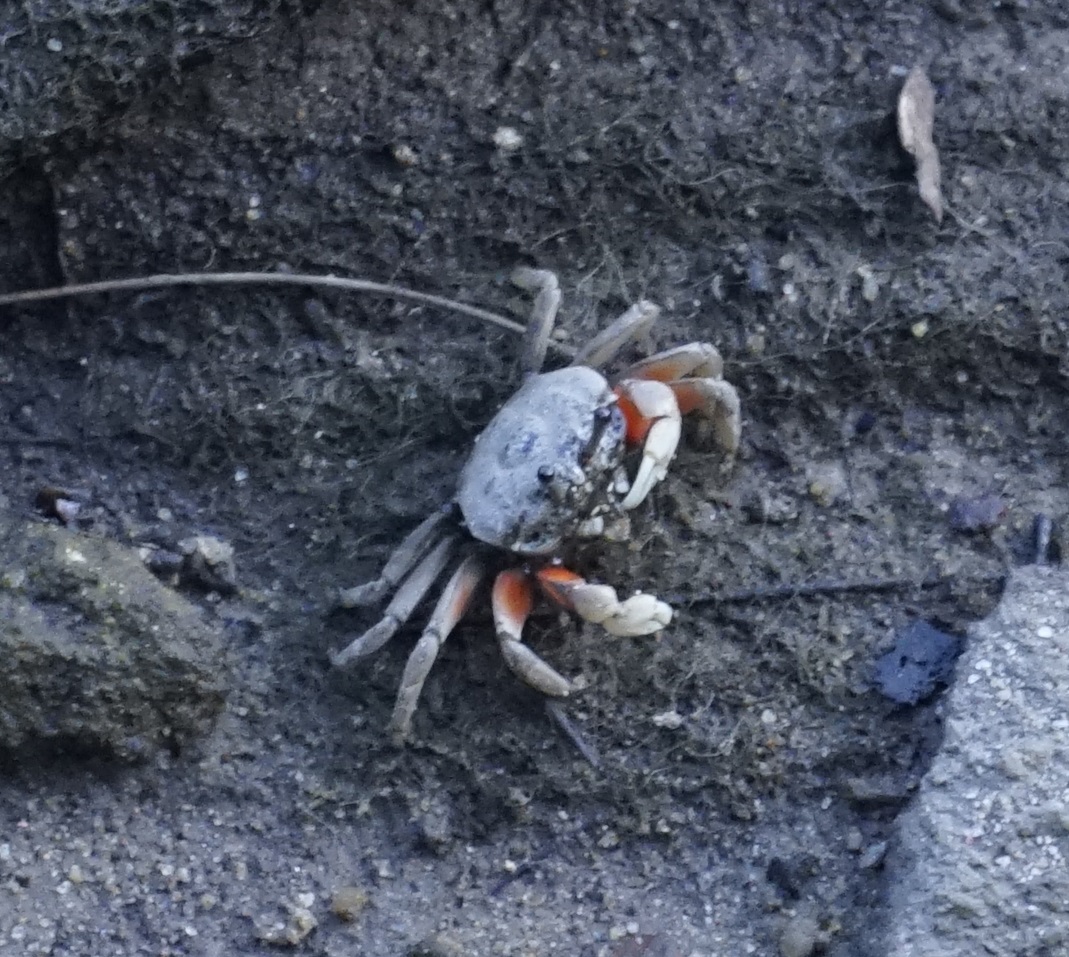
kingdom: Animalia
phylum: Arthropoda
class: Malacostraca
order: Decapoda
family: Heloeciidae
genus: Heloecius
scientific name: Heloecius cordiformis
